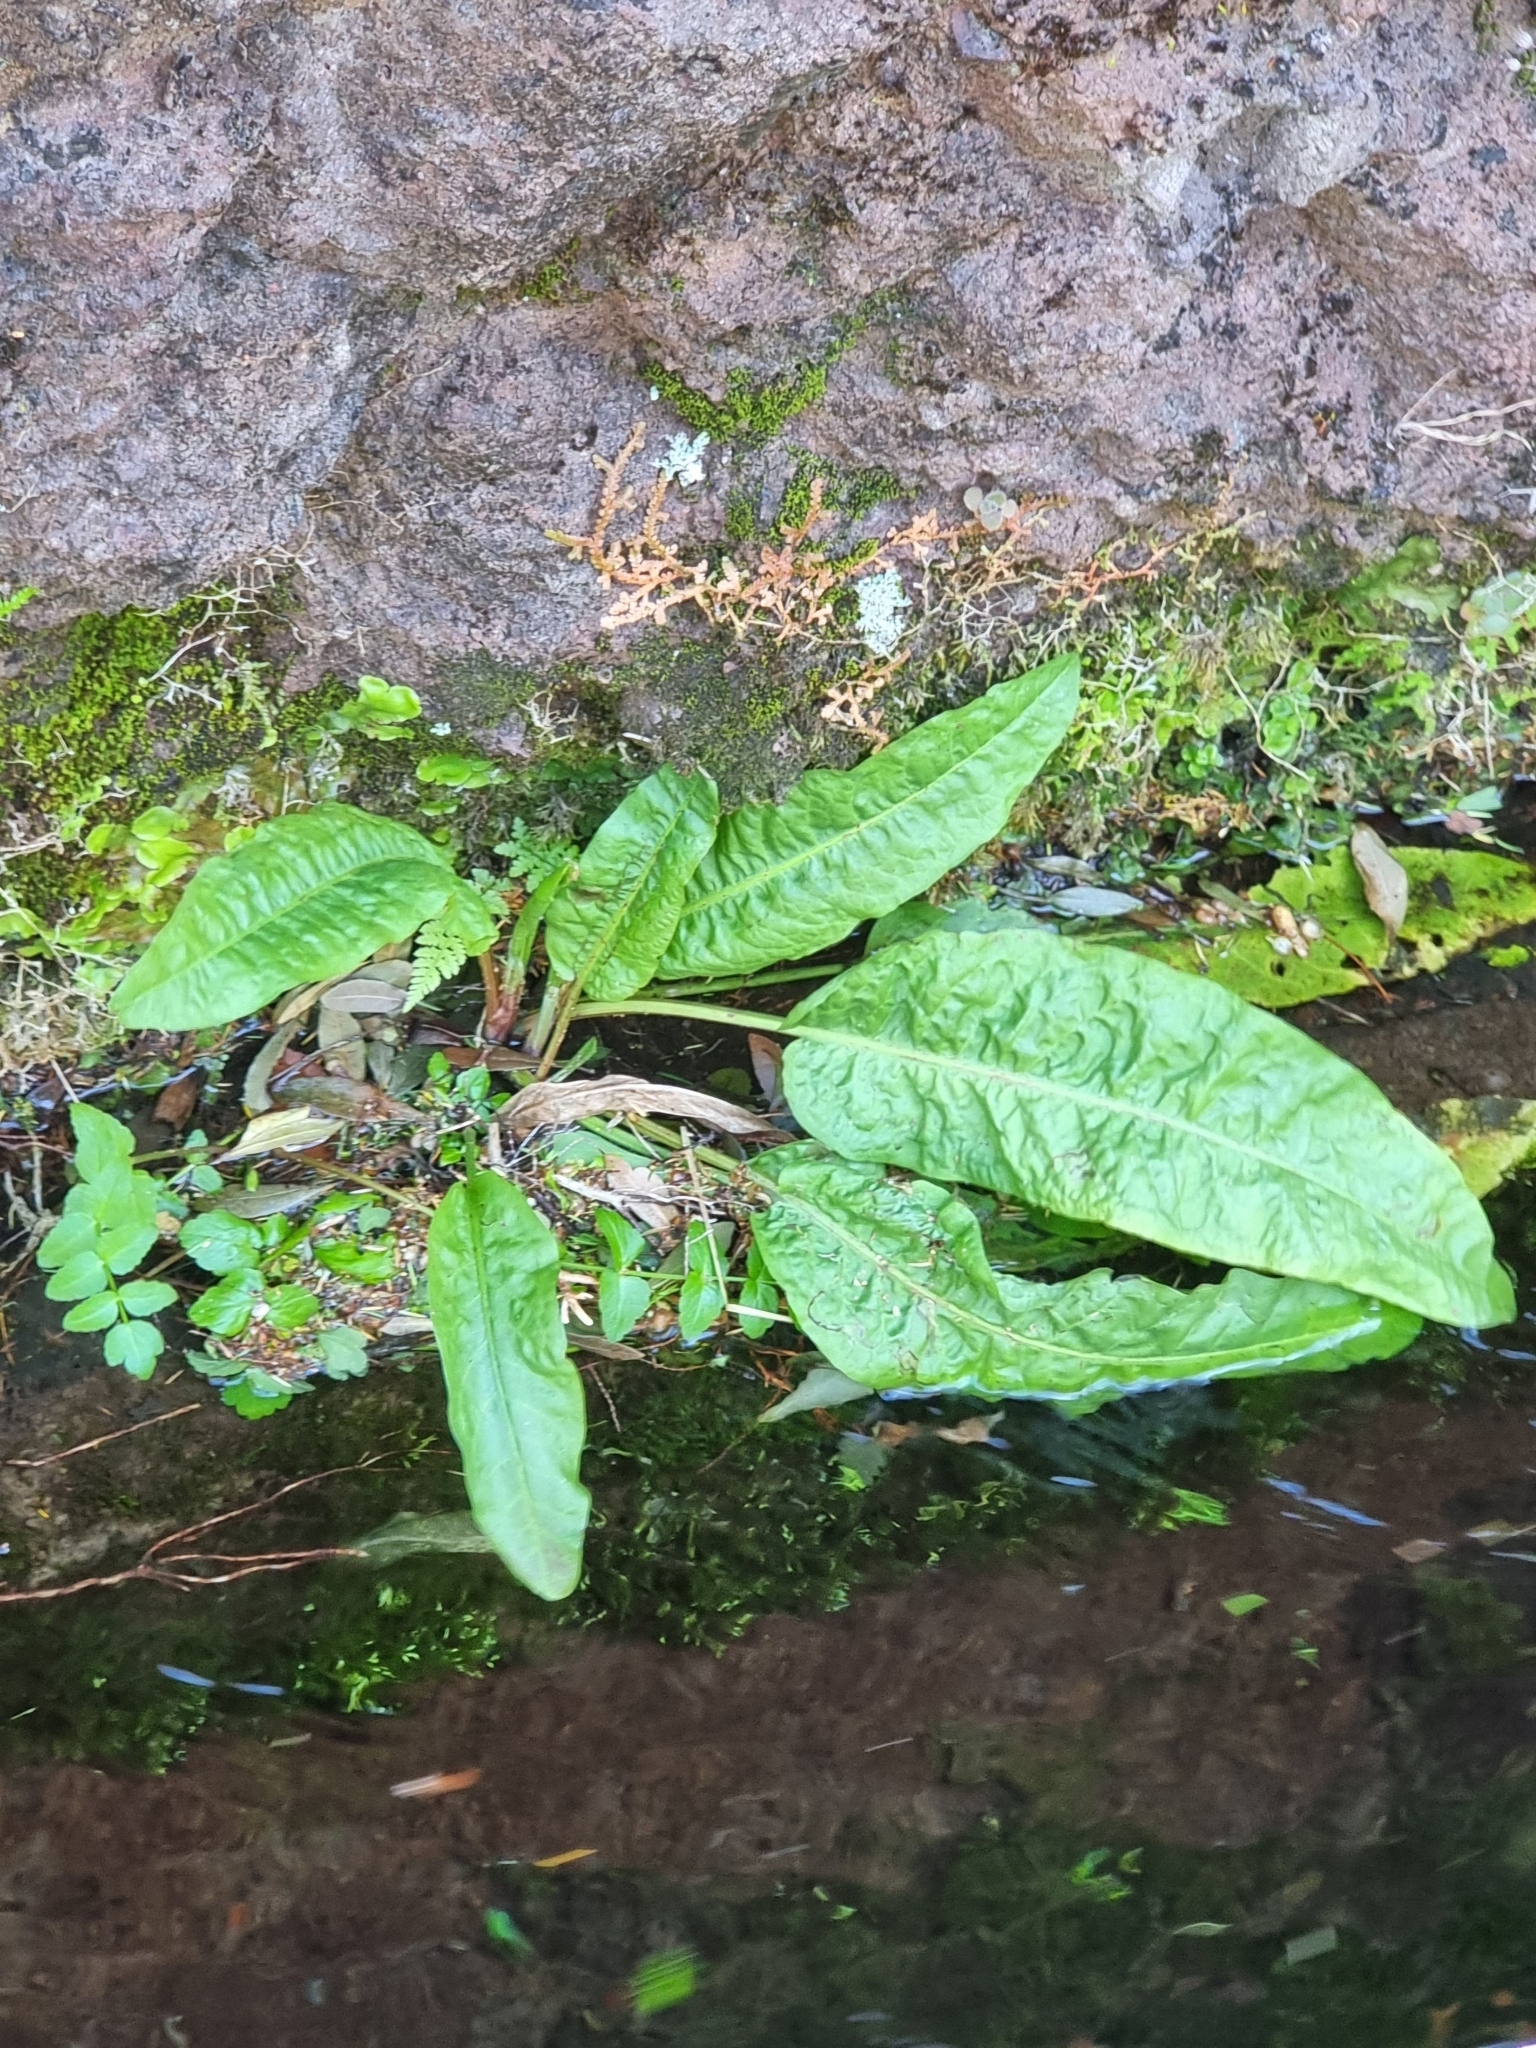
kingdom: Plantae
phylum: Tracheophyta
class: Magnoliopsida
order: Caryophyllales
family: Polygonaceae
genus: Rumex
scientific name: Rumex obtusifolius
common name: Bitter dock
